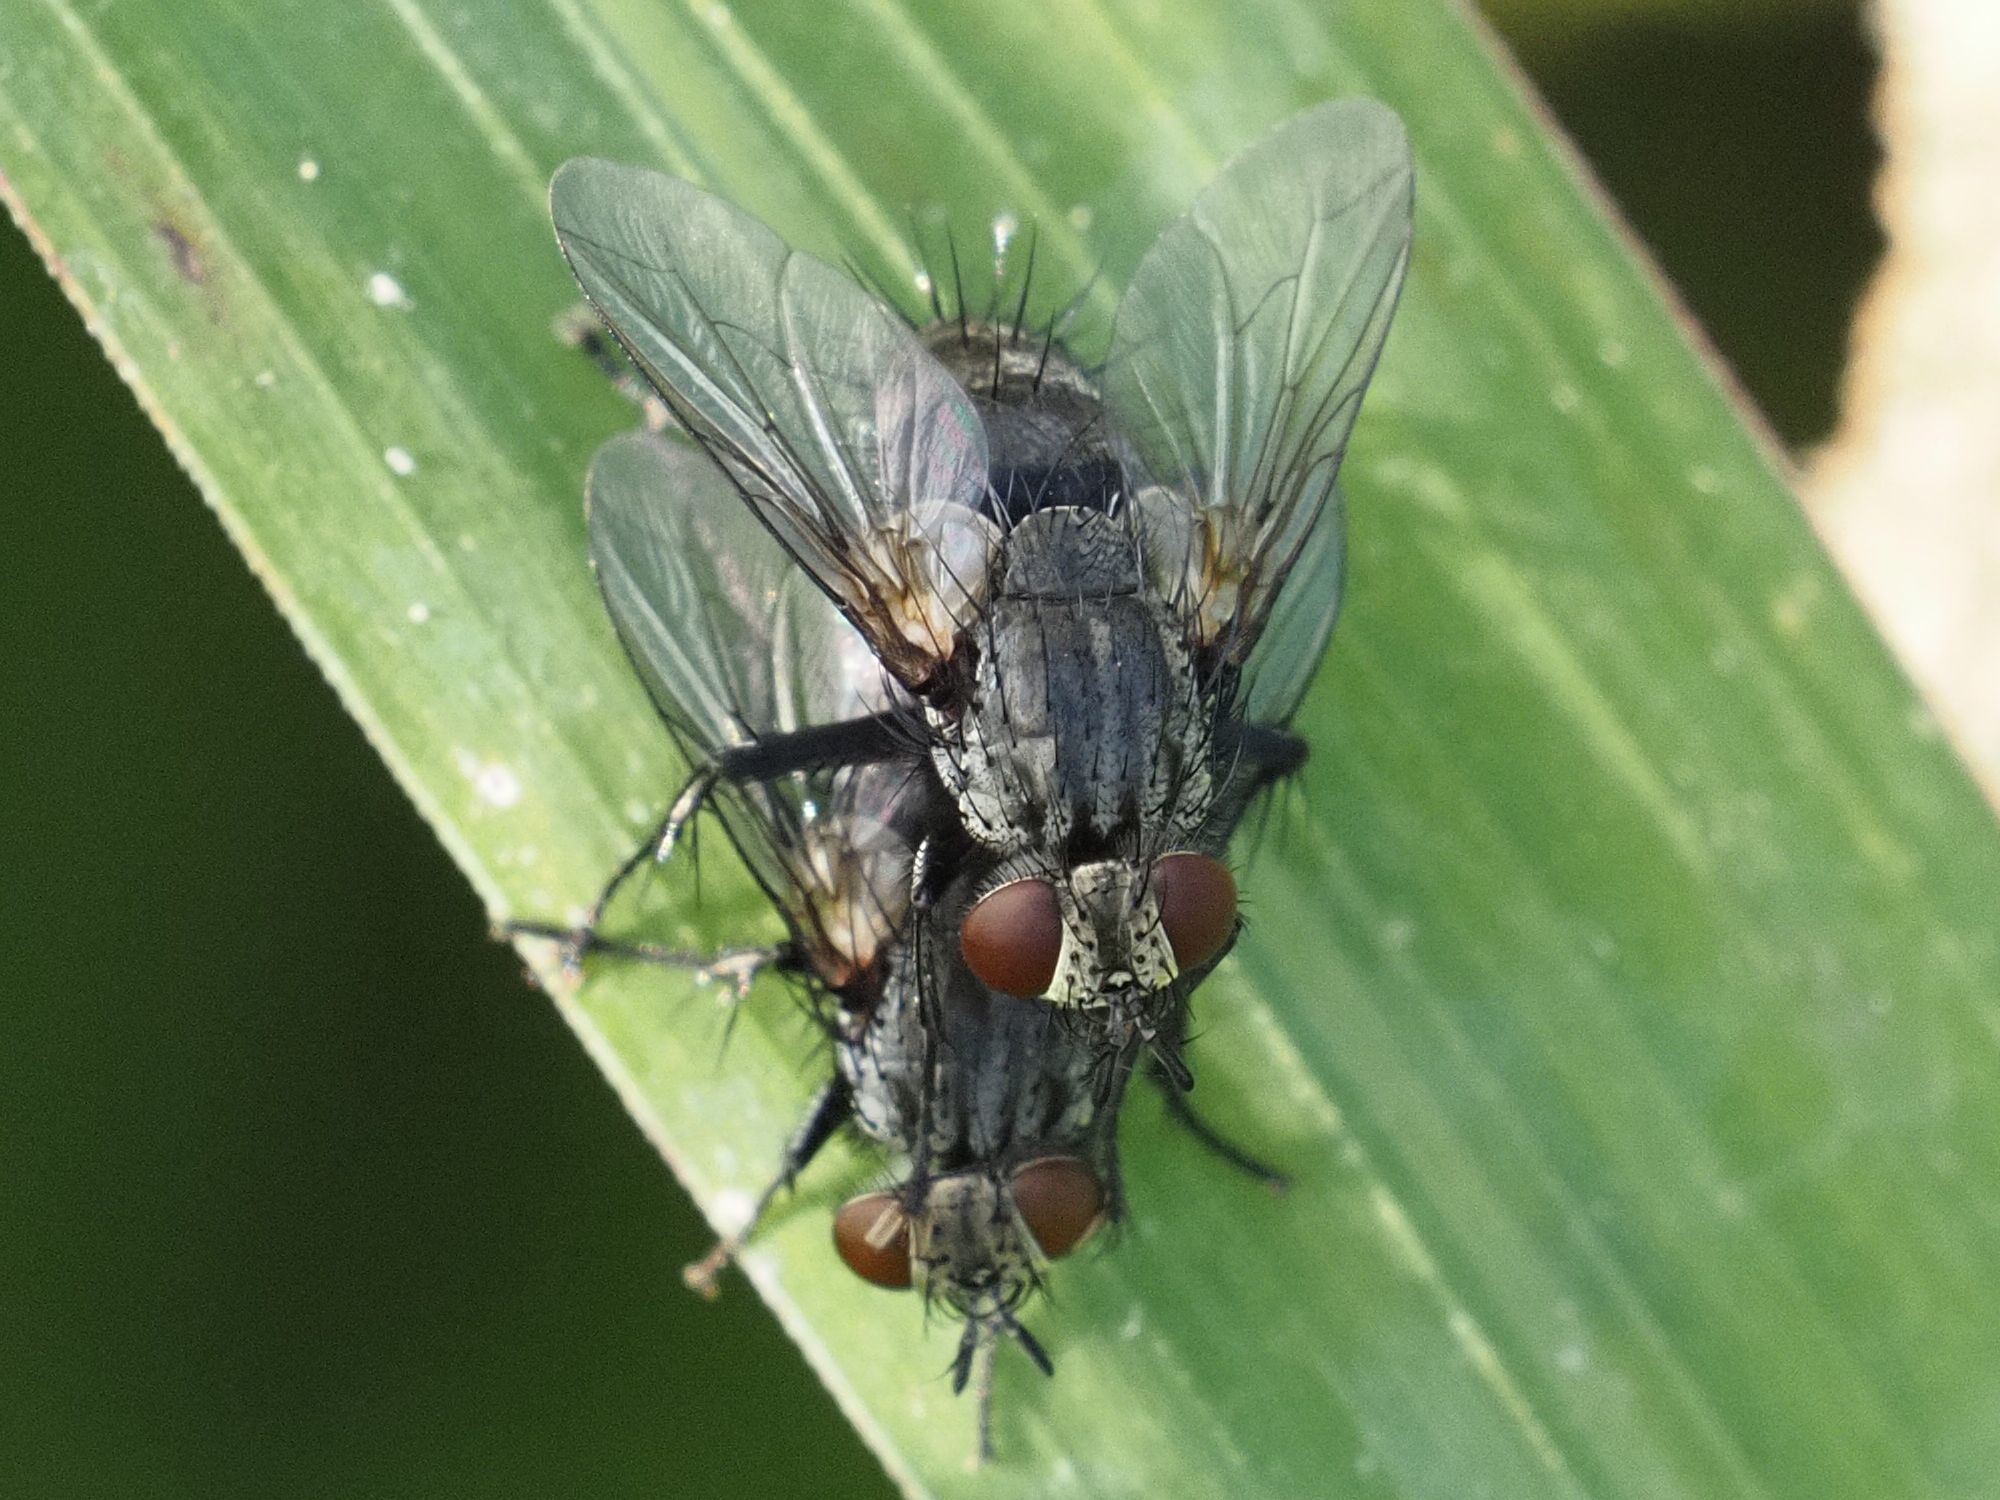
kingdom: Animalia
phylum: Arthropoda
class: Insecta
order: Diptera
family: Tachinidae
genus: Voria
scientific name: Voria ruralis
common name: Parasitic fly
